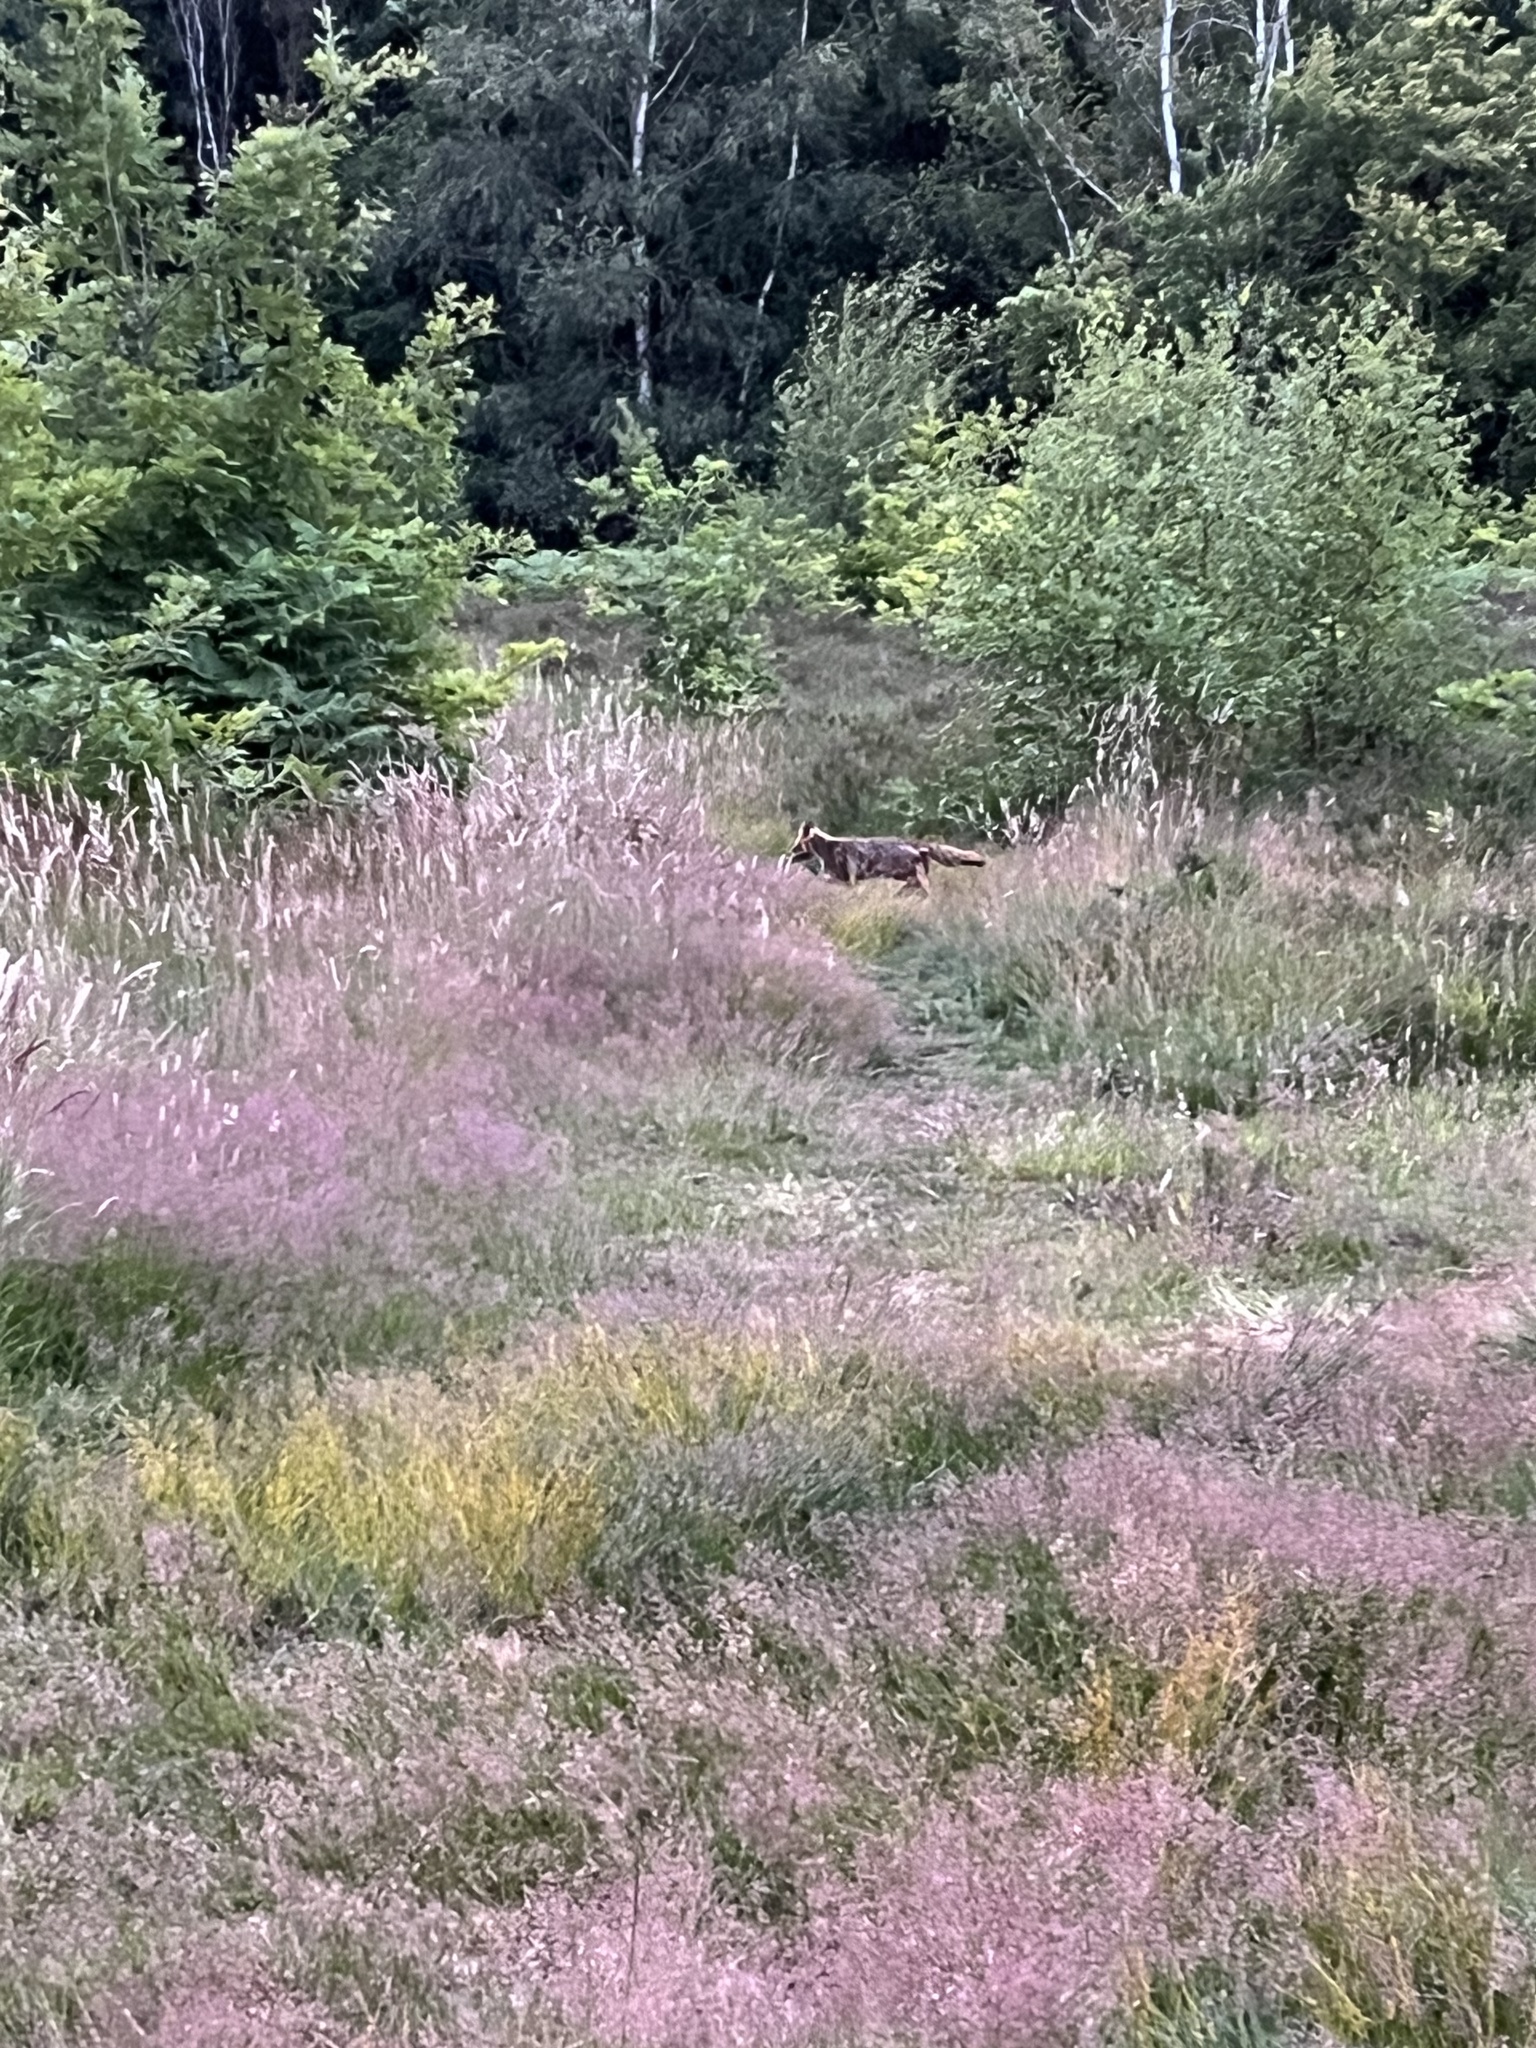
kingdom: Animalia
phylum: Chordata
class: Mammalia
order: Carnivora
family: Canidae
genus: Vulpes
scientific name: Vulpes vulpes
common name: Red fox
